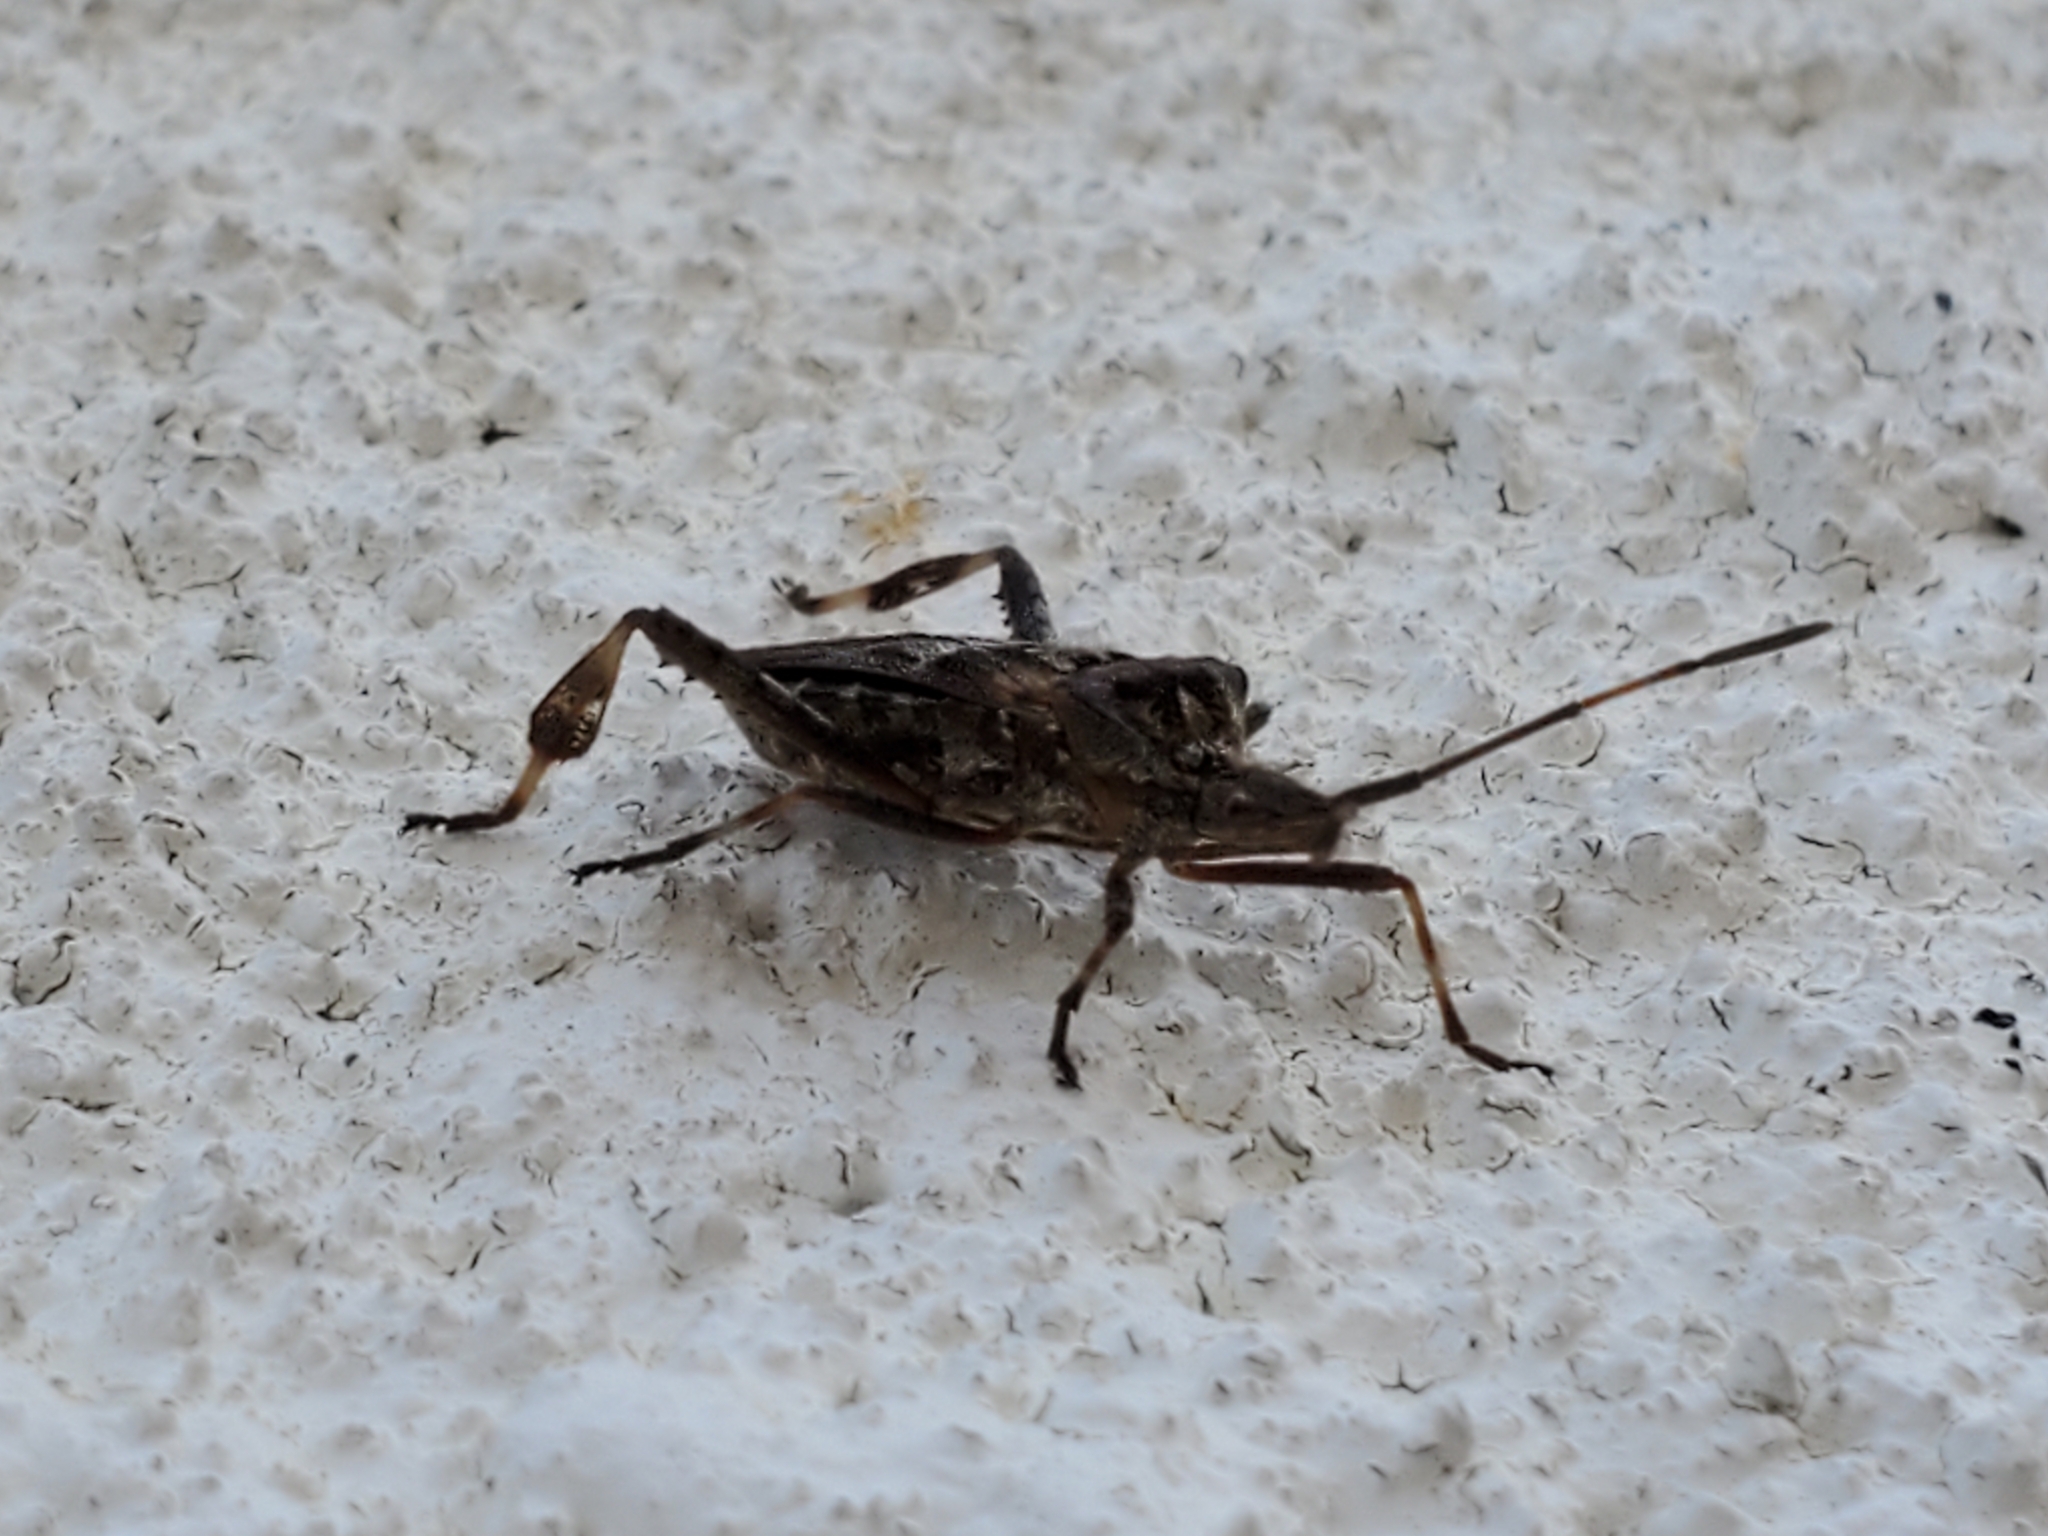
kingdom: Animalia
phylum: Arthropoda
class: Insecta
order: Hemiptera
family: Coreidae
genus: Leptoglossus
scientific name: Leptoglossus occidentalis
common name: Western conifer-seed bug
